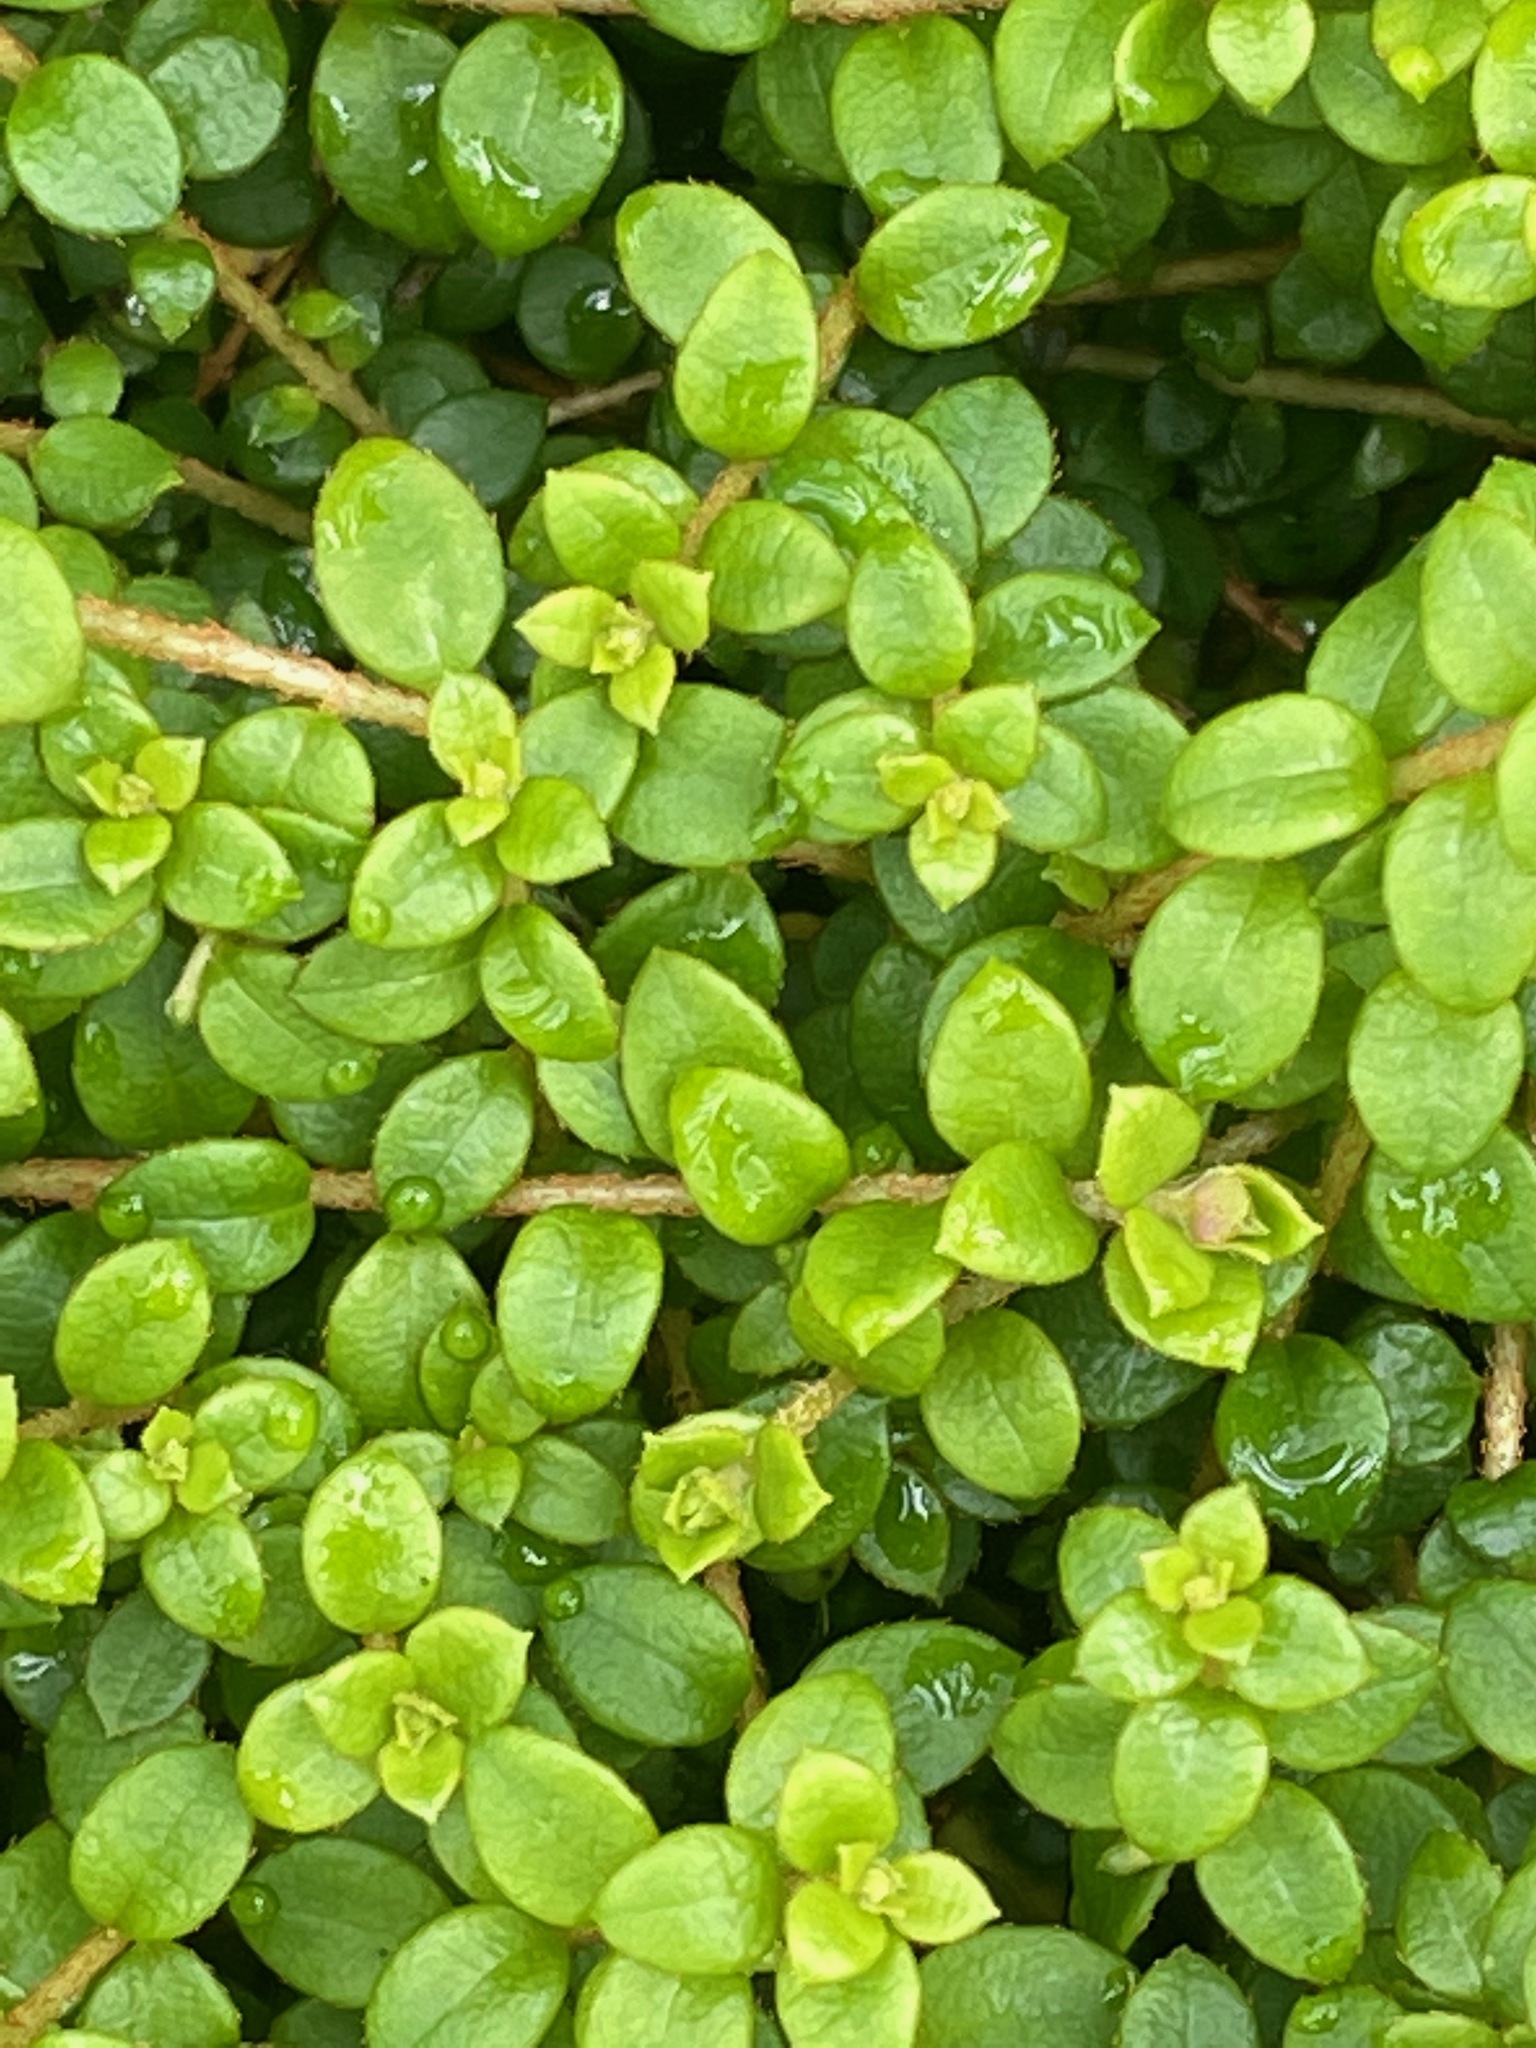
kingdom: Plantae
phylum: Tracheophyta
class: Magnoliopsida
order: Ericales
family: Ericaceae
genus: Gaultheria
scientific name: Gaultheria hispidula
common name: Cancer wintergreen
